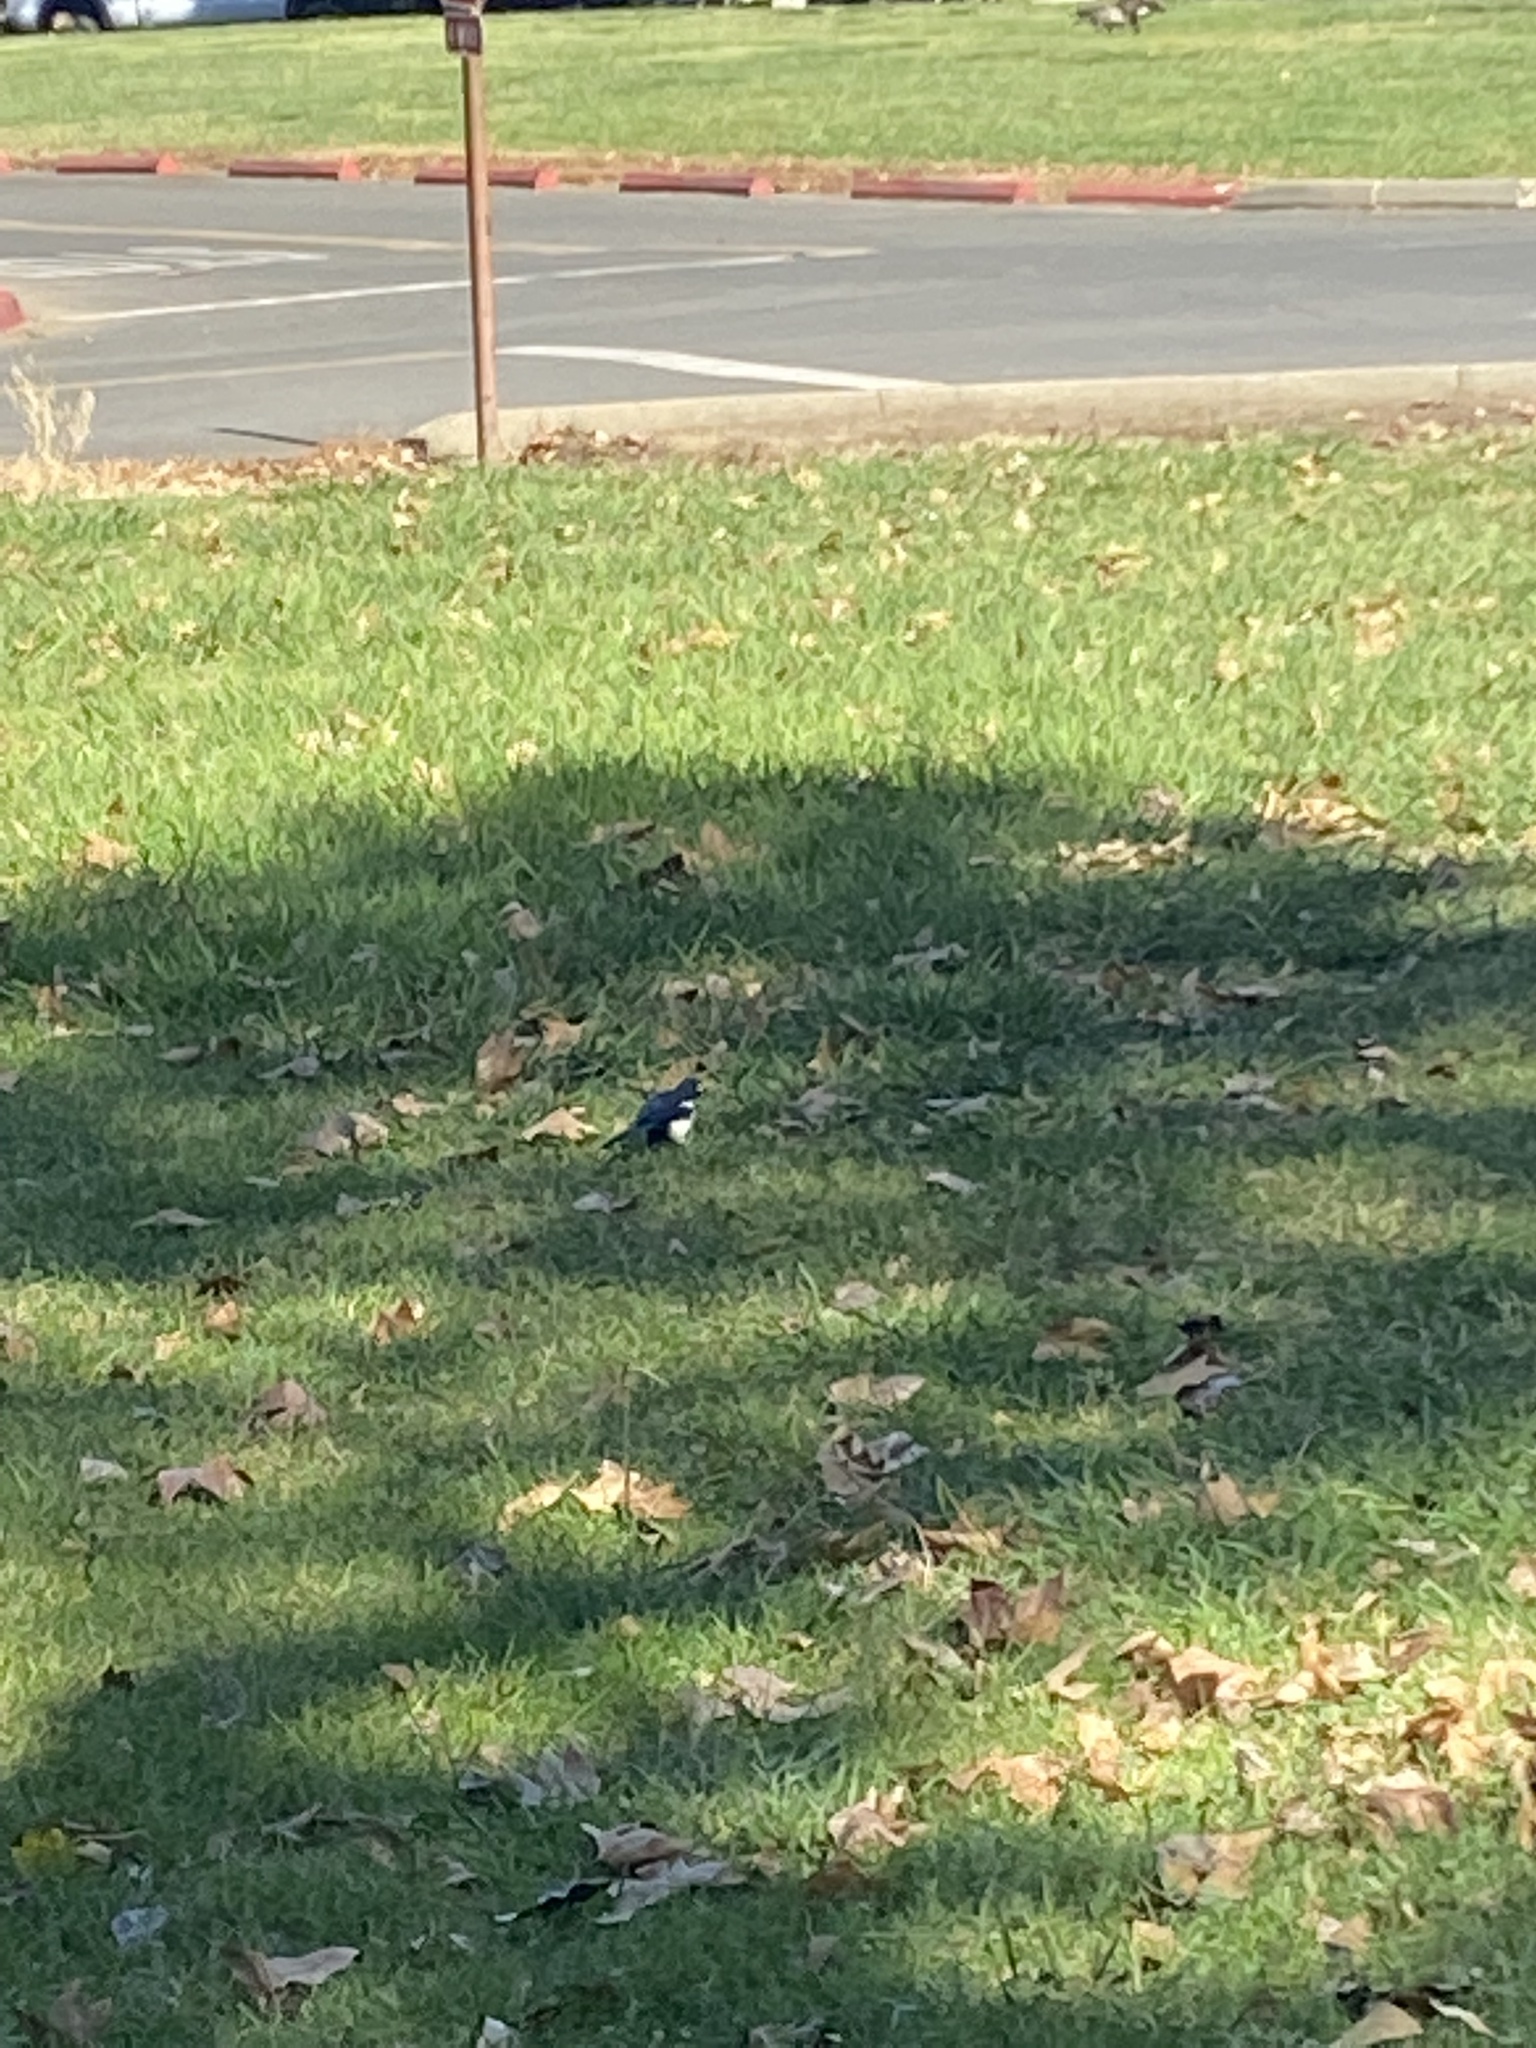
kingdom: Animalia
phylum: Chordata
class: Aves
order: Passeriformes
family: Corvidae
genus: Pica
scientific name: Pica nuttalli
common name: Yellow-billed magpie
